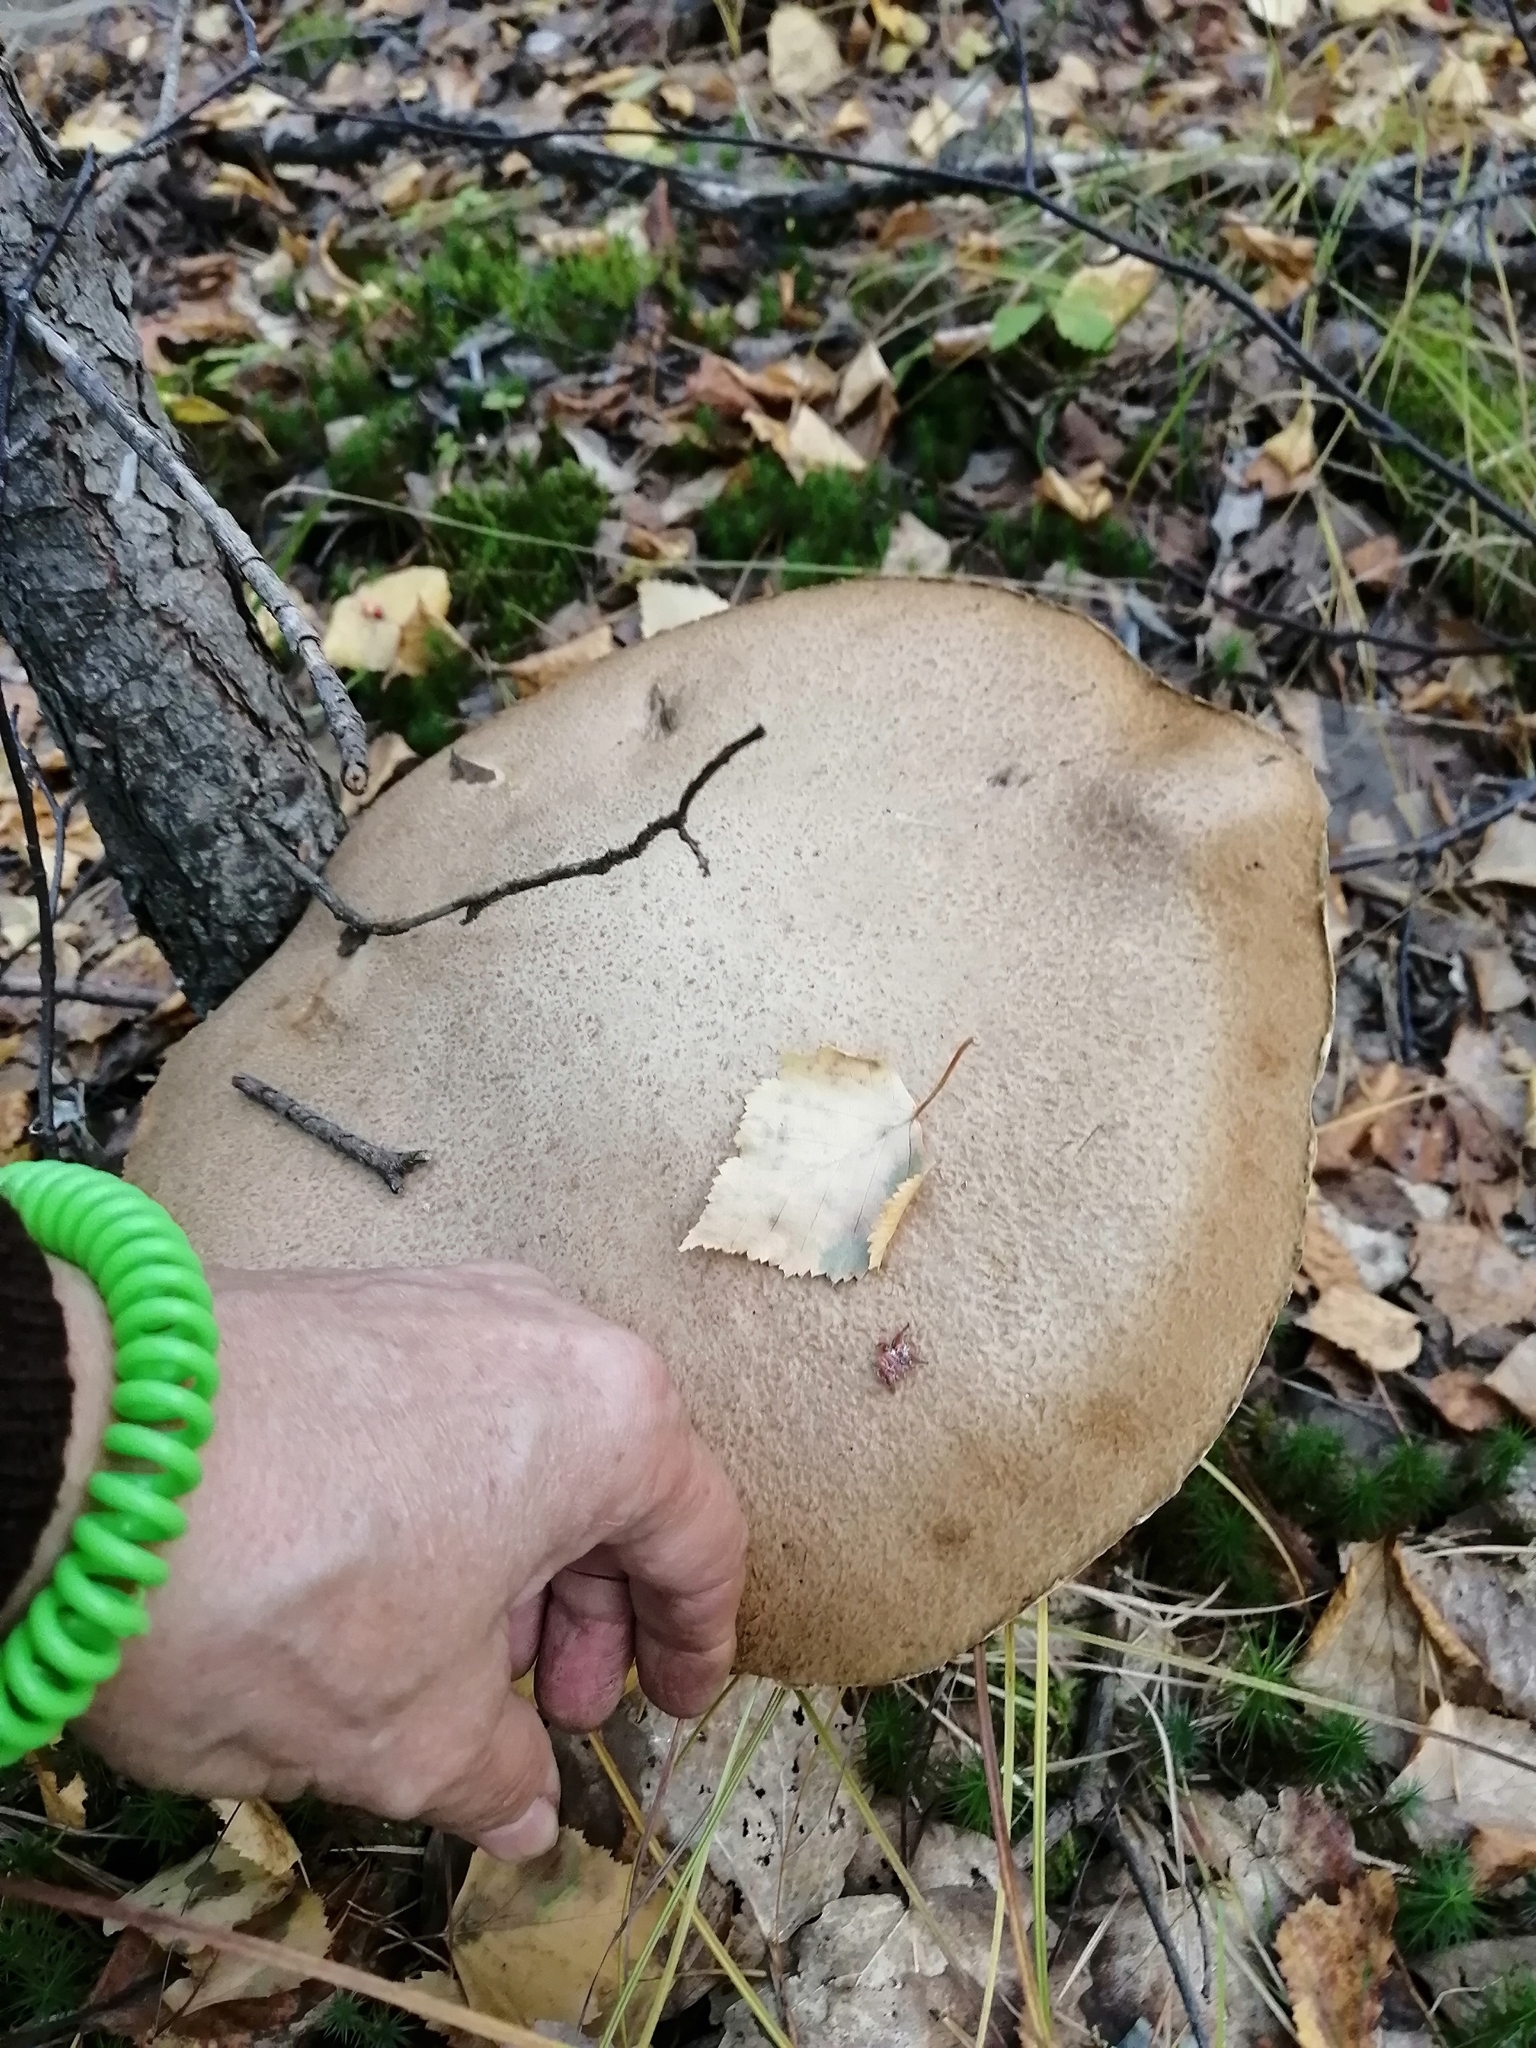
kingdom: Fungi
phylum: Basidiomycota
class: Agaricomycetes
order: Boletales
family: Boletaceae
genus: Leccinum
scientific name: Leccinum scabrum
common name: Blushing bolete
